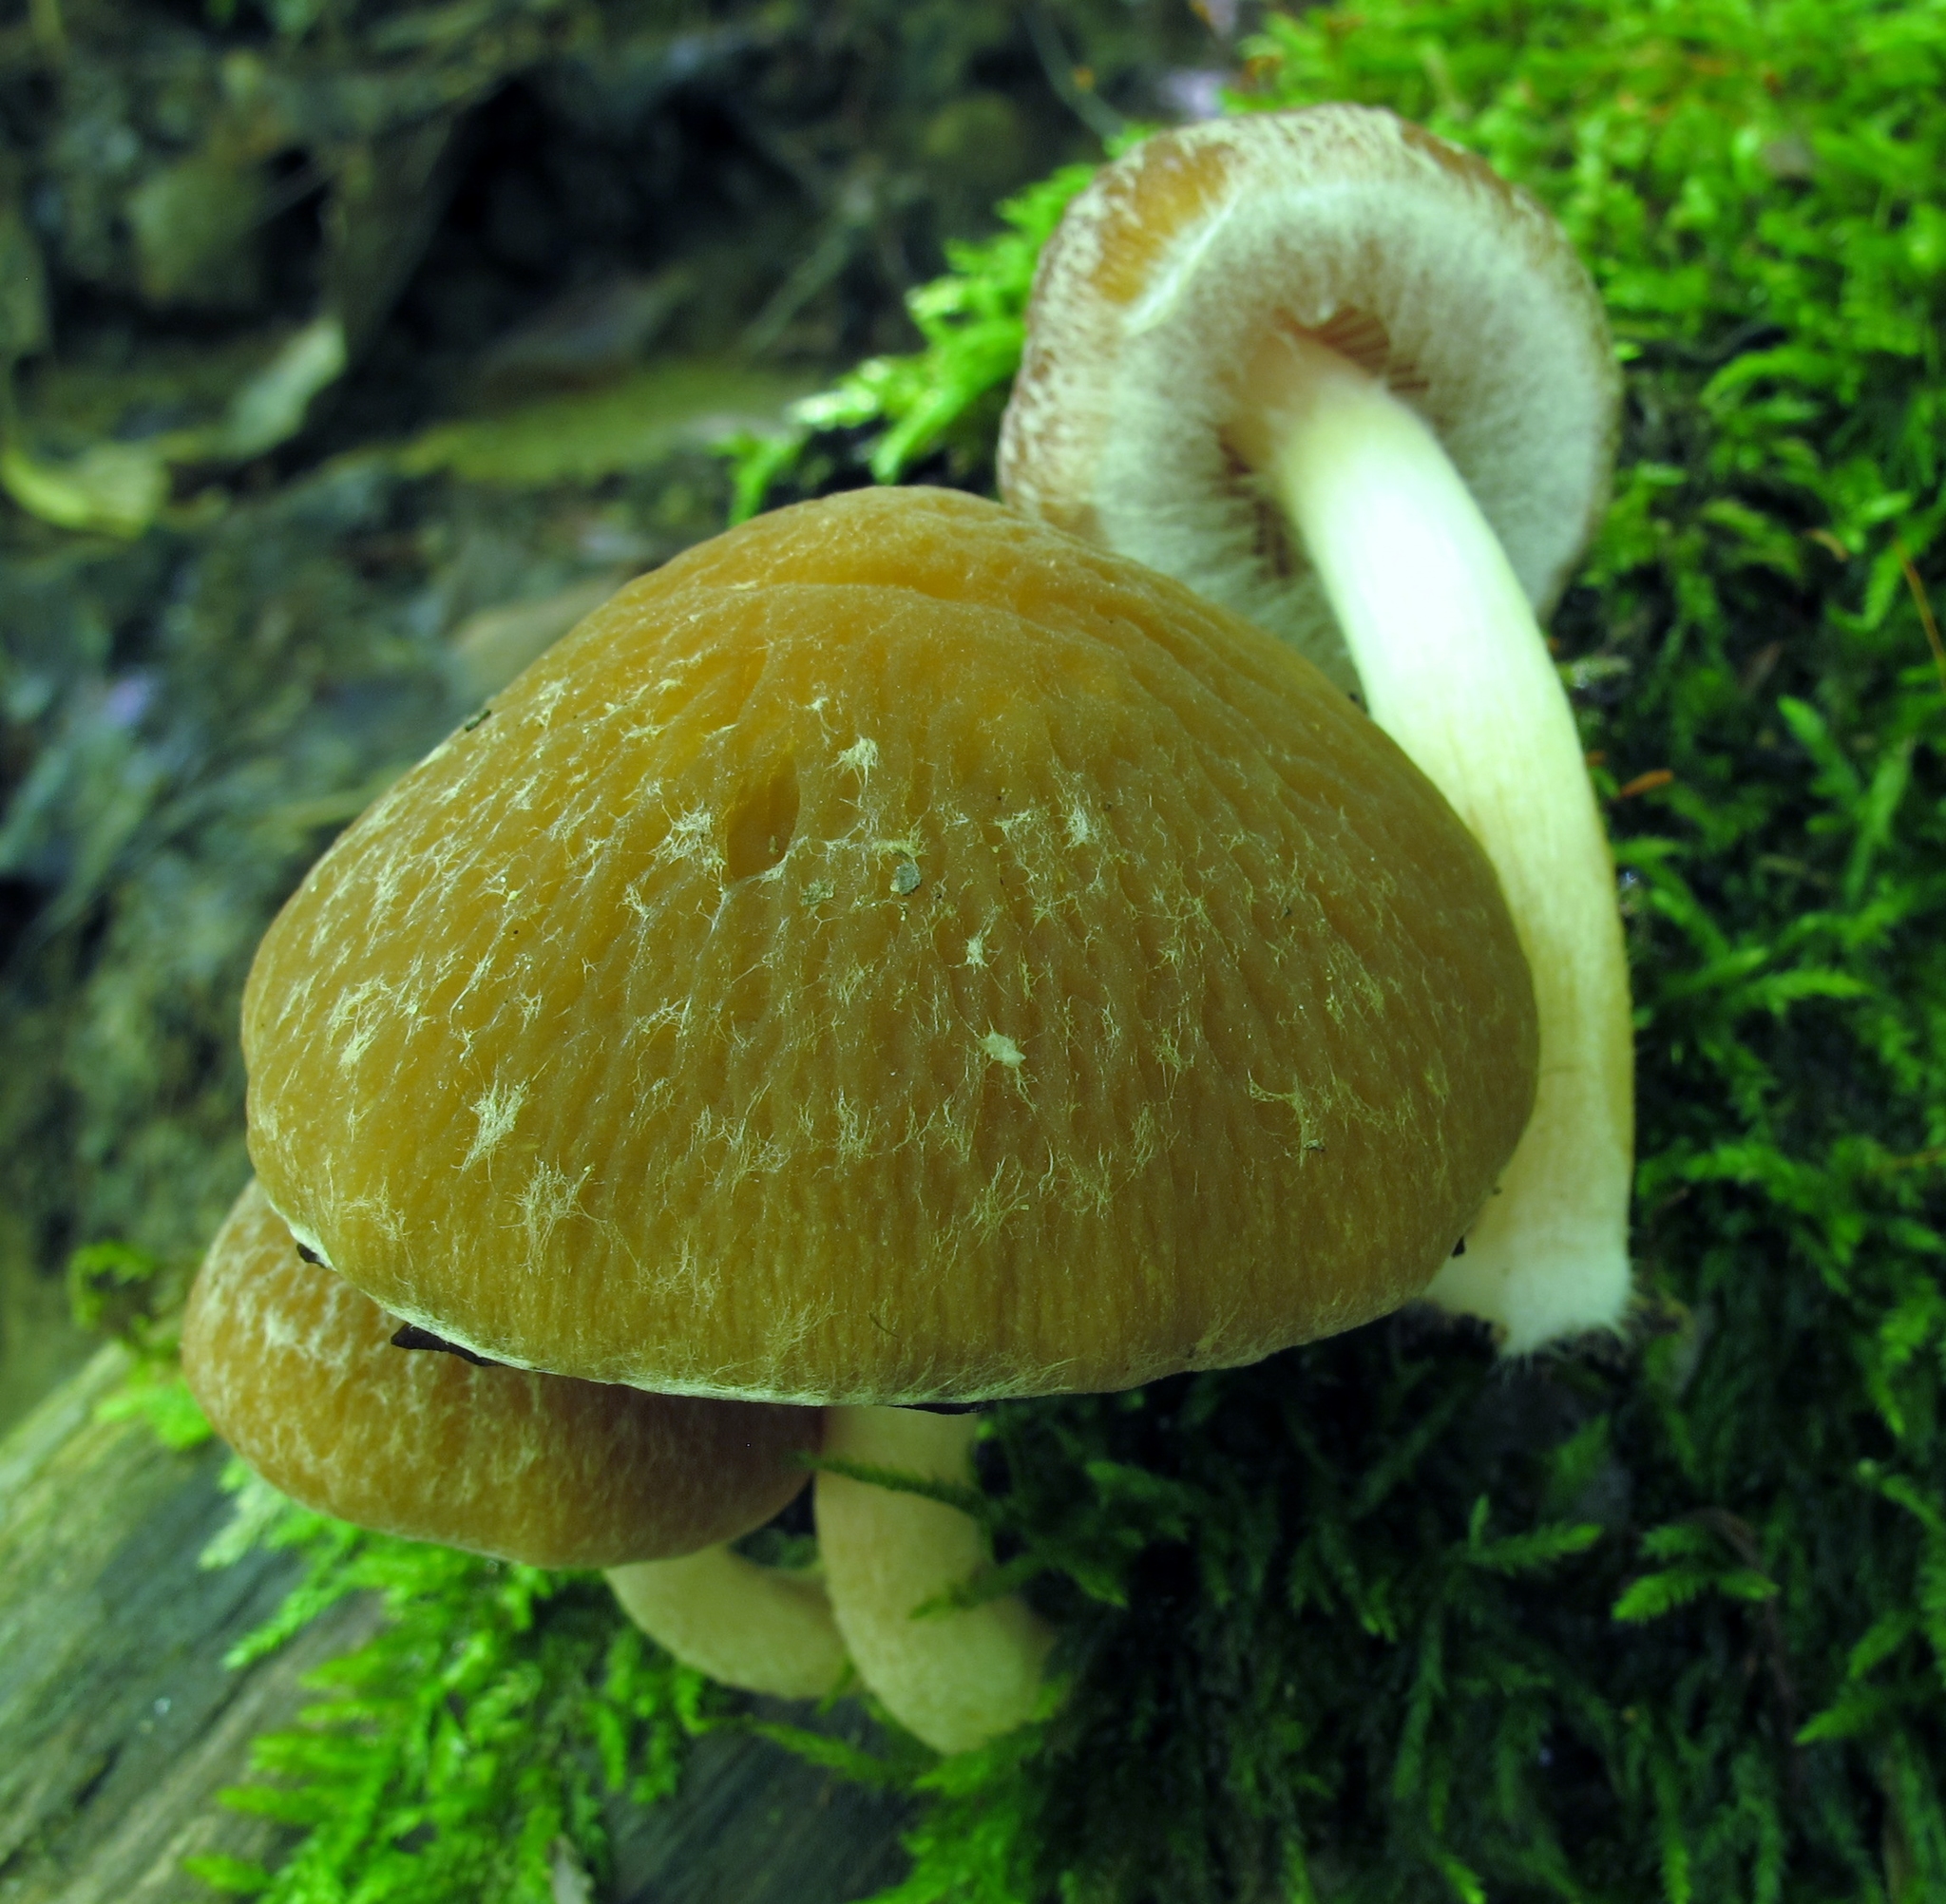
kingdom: Fungi
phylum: Basidiomycota
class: Agaricomycetes
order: Agaricales
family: Psathyrellaceae
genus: Typhrasa
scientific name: Typhrasa gossypina
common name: Wrinkled psathyrella
